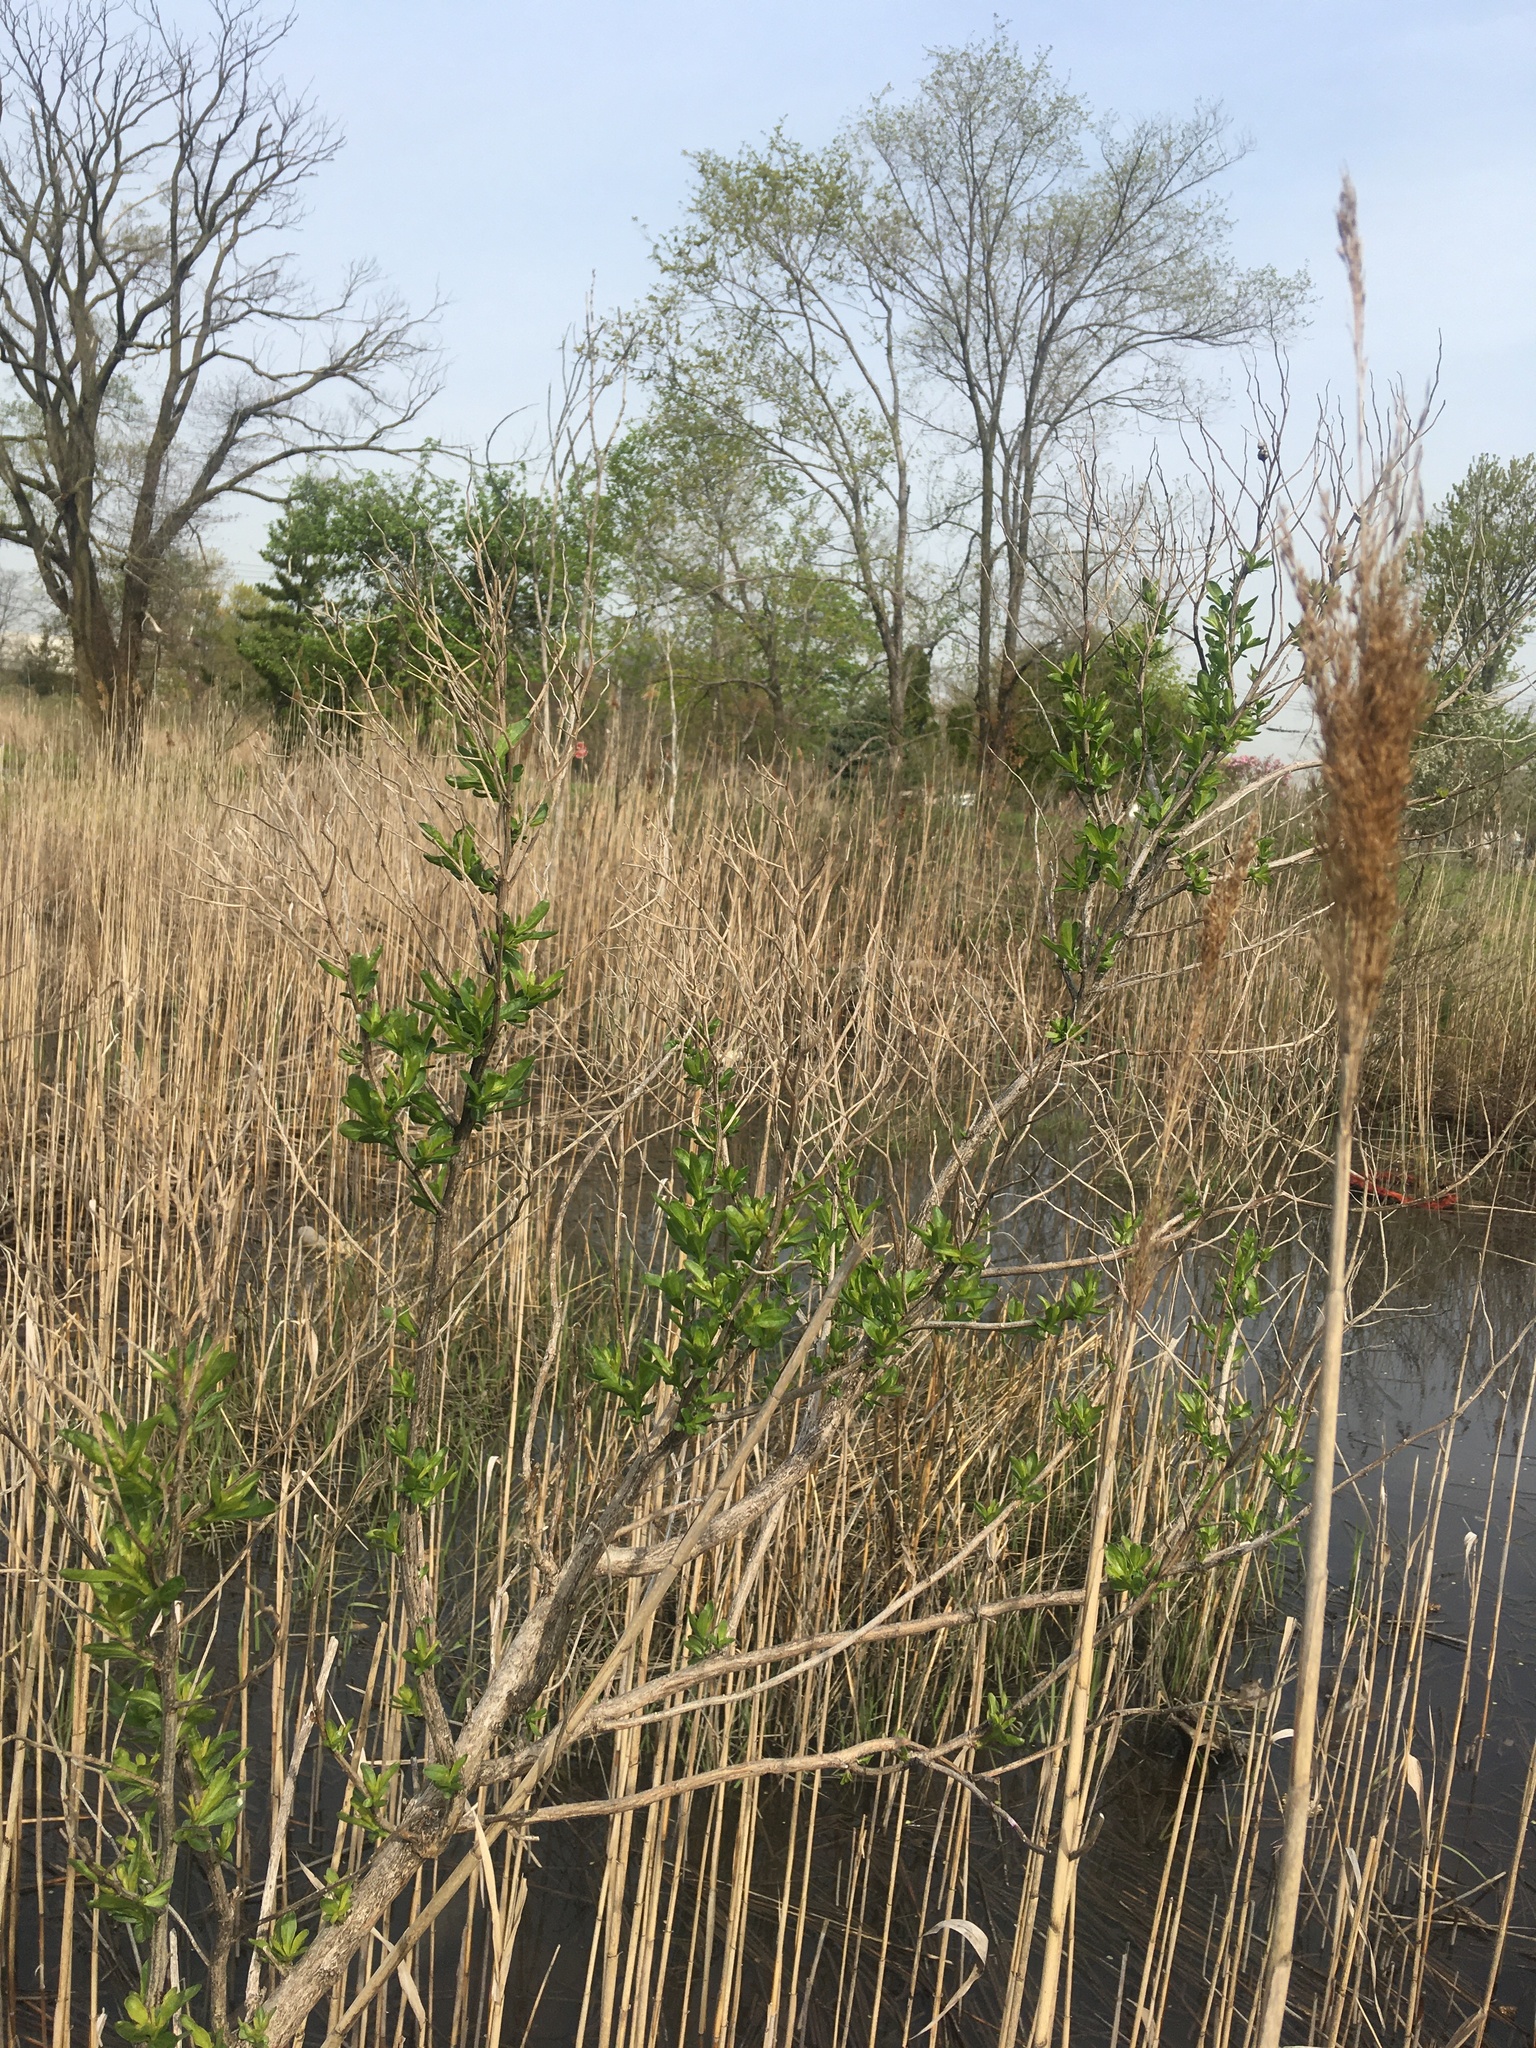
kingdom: Plantae
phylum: Tracheophyta
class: Magnoliopsida
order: Asterales
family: Asteraceae
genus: Baccharis
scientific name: Baccharis halimifolia
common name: Eastern baccharis
